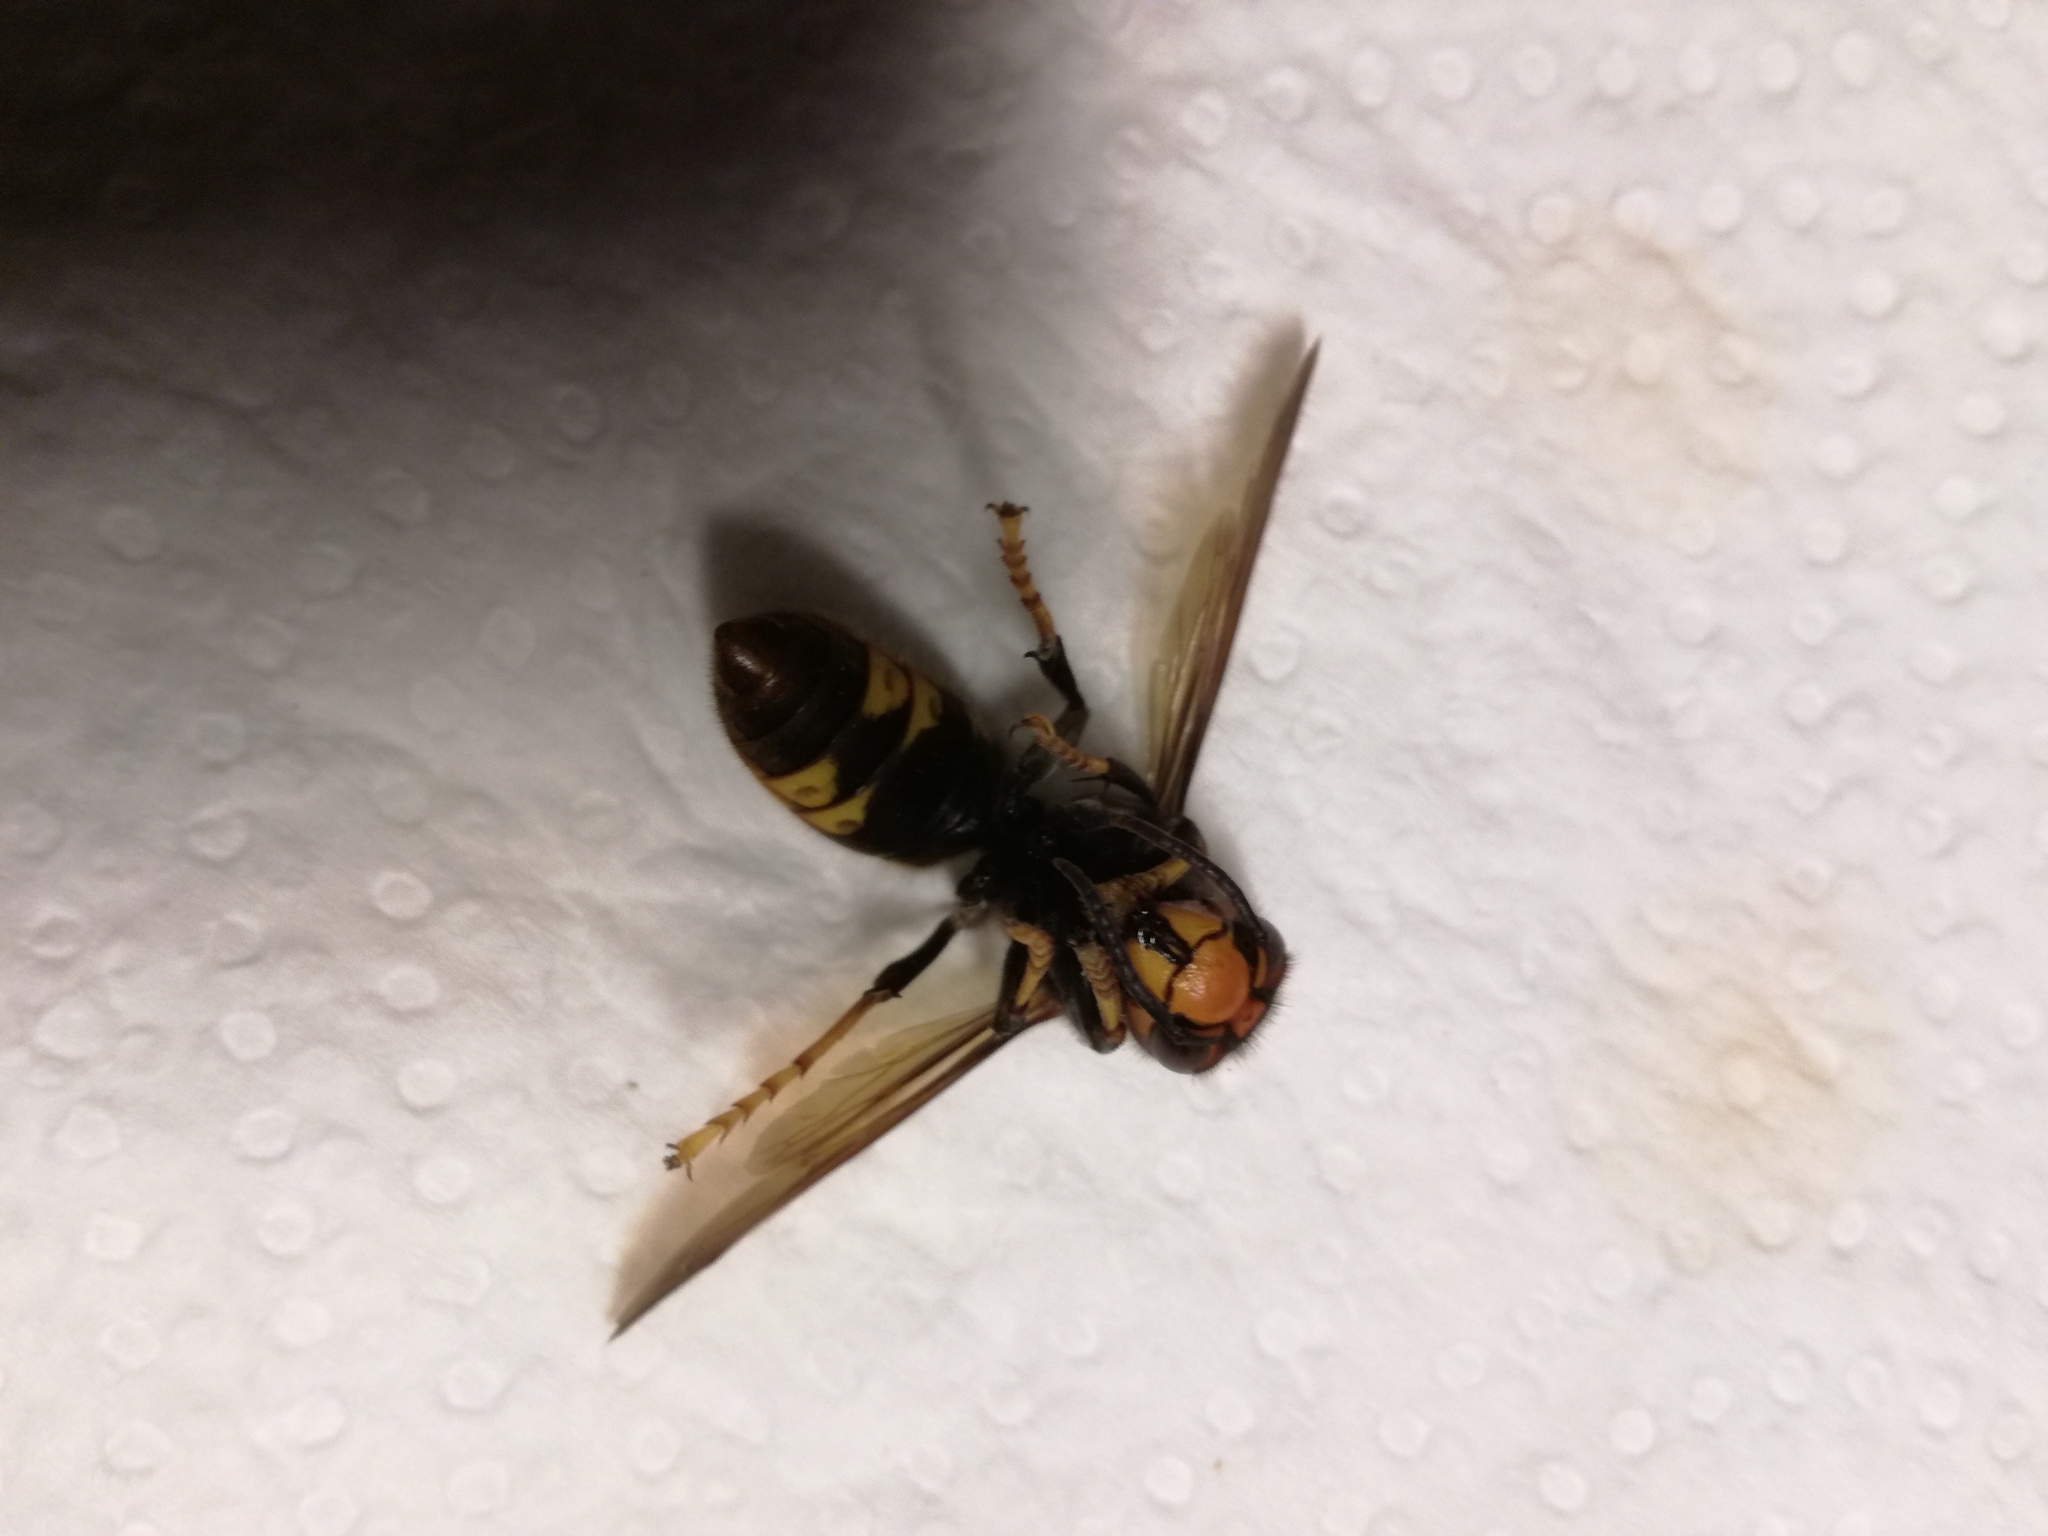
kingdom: Animalia
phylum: Arthropoda
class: Insecta
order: Hymenoptera
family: Vespidae
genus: Vespa
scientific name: Vespa velutina
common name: Asian hornet
